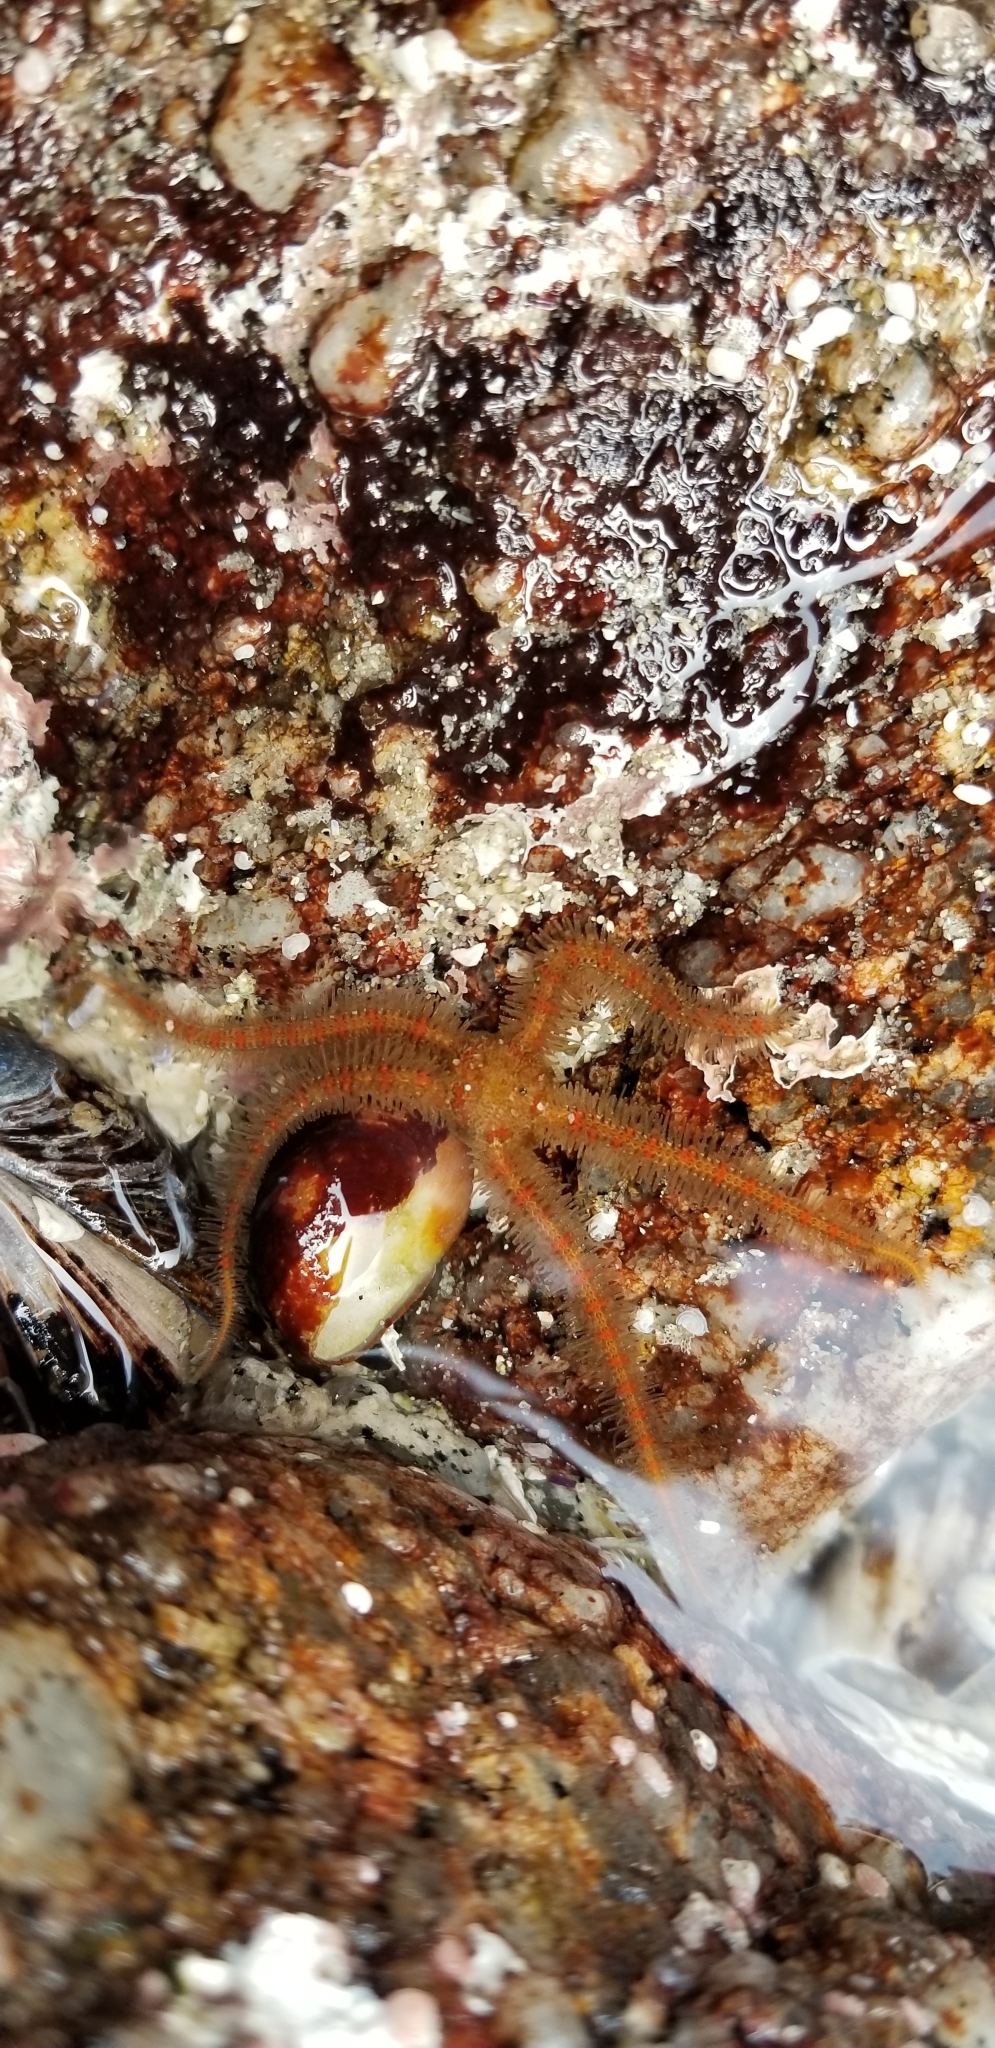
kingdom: Animalia
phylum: Echinodermata
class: Ophiuroidea
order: Amphilepidida
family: Ophiotrichidae
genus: Ophiothrix
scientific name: Ophiothrix spiculata
